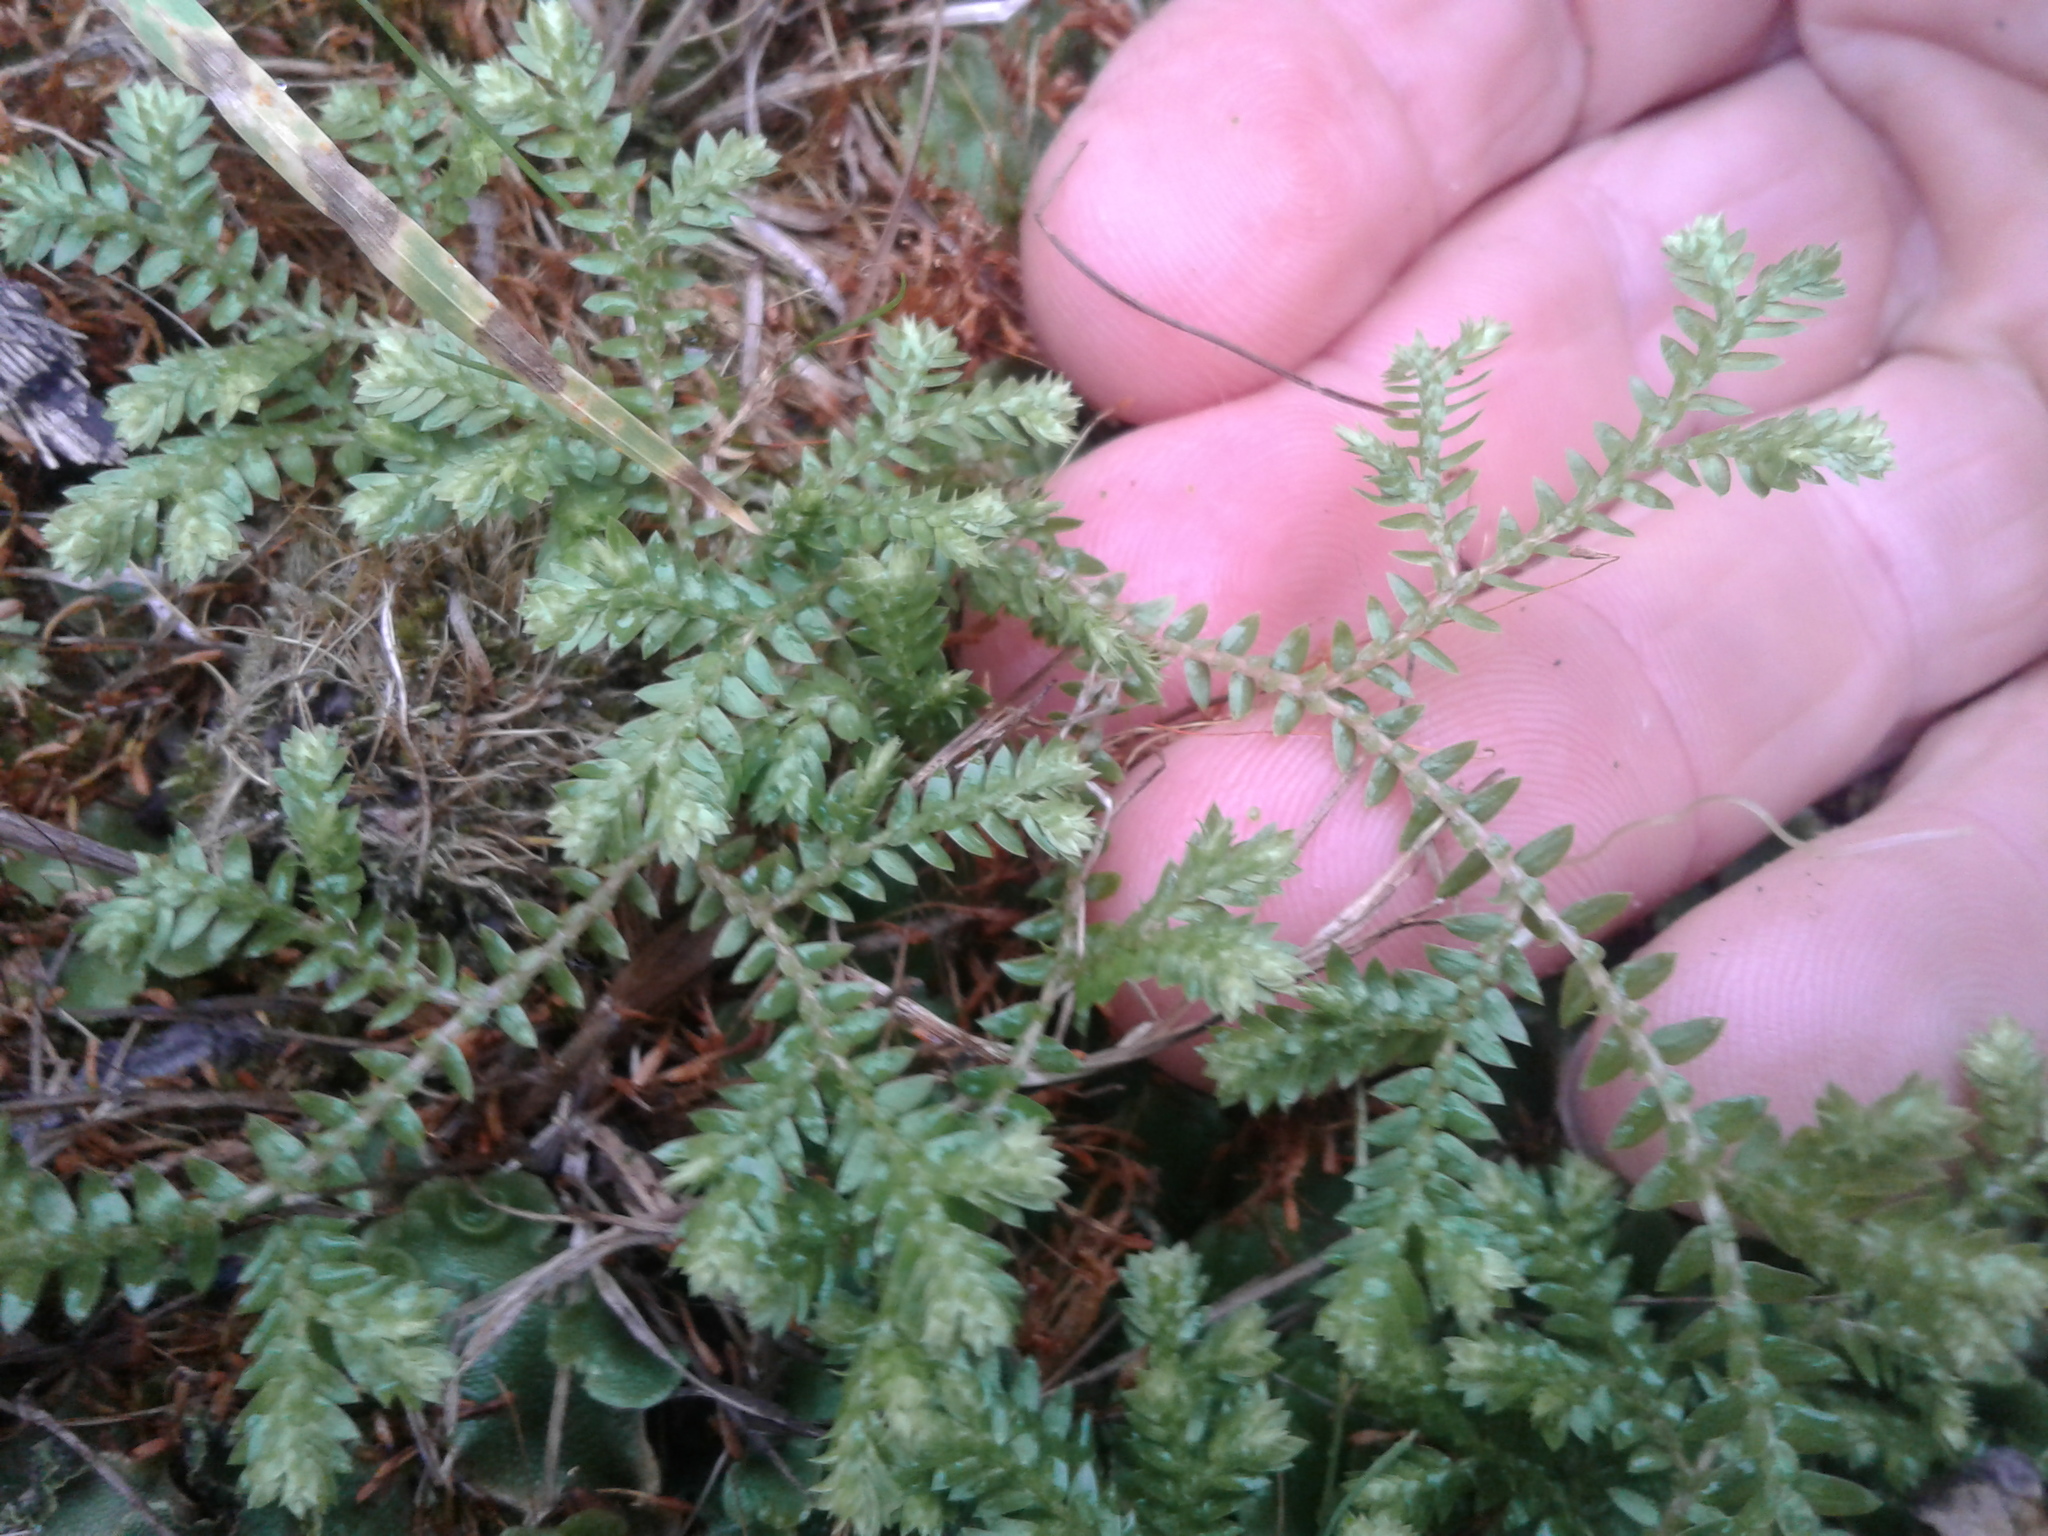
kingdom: Plantae
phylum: Tracheophyta
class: Lycopodiopsida
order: Selaginellales
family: Selaginellaceae
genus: Selaginella
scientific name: Selaginella kraussiana
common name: Krauss' spikemoss
